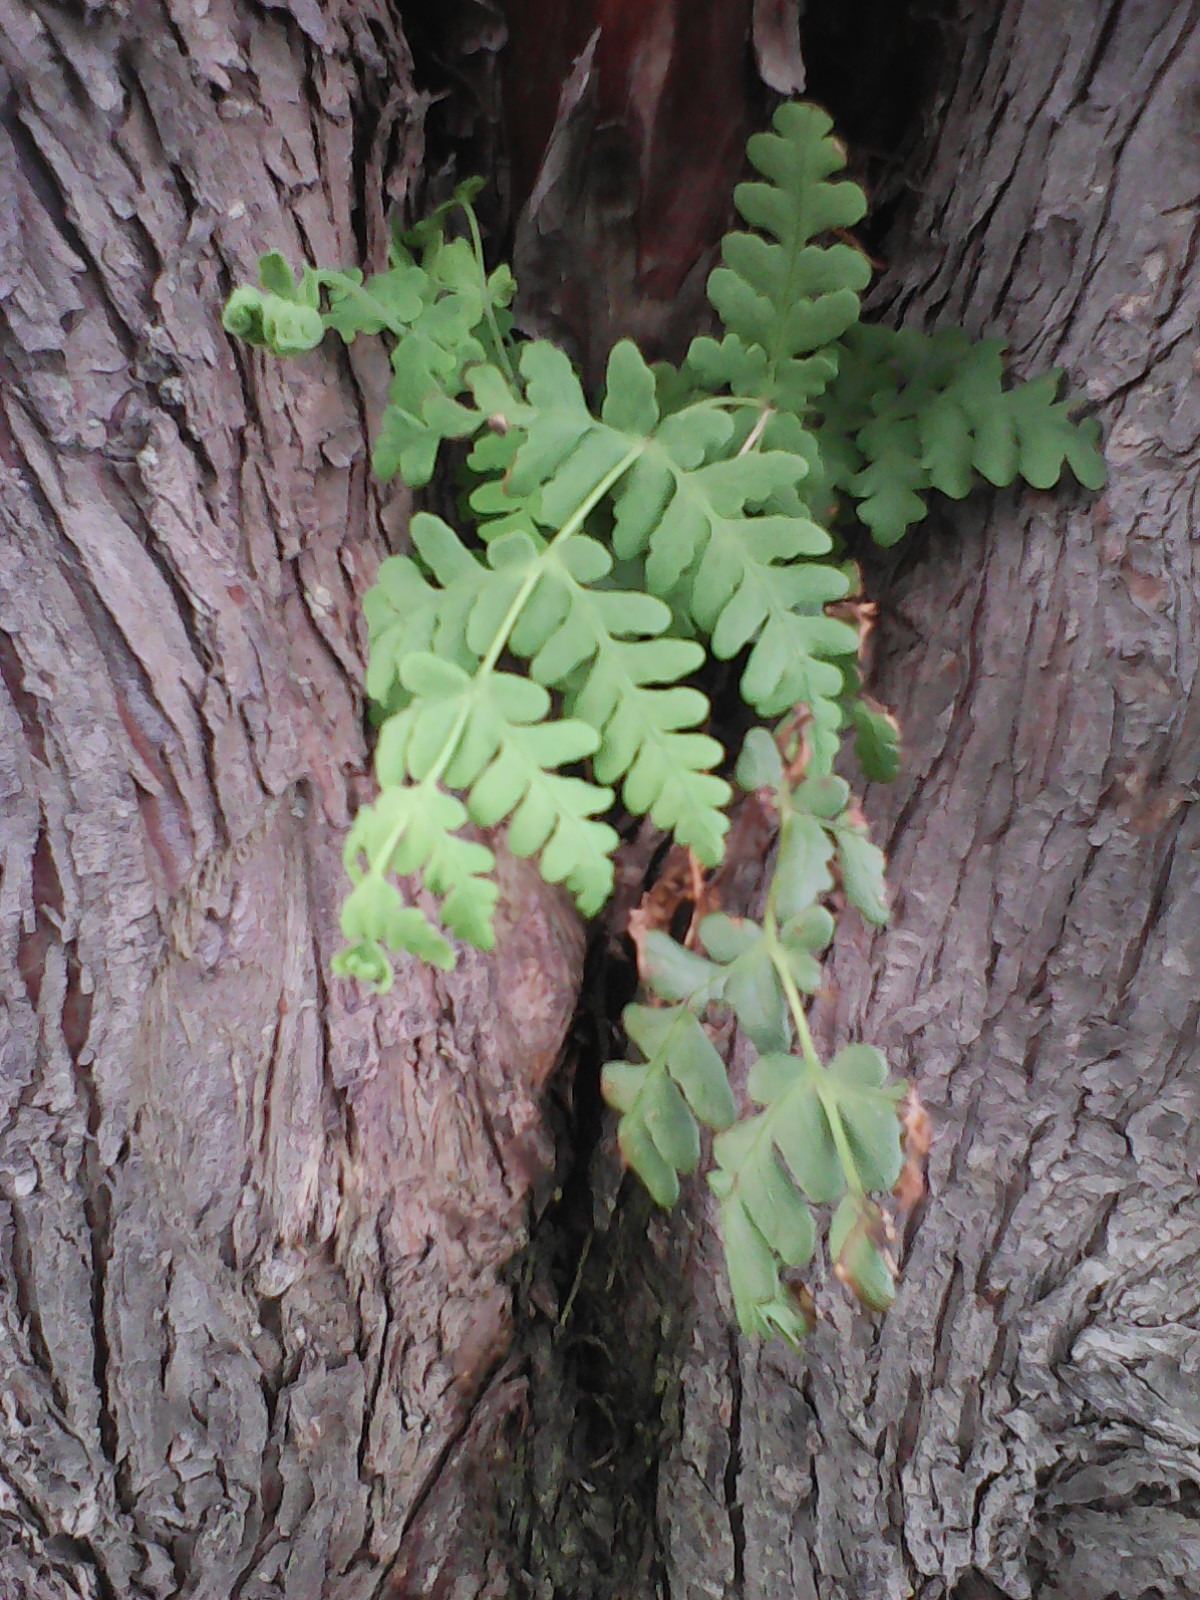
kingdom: Plantae
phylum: Tracheophyta
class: Polypodiopsida
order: Polypodiales
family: Dennstaedtiaceae
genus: Histiopteris
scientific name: Histiopteris incisa
